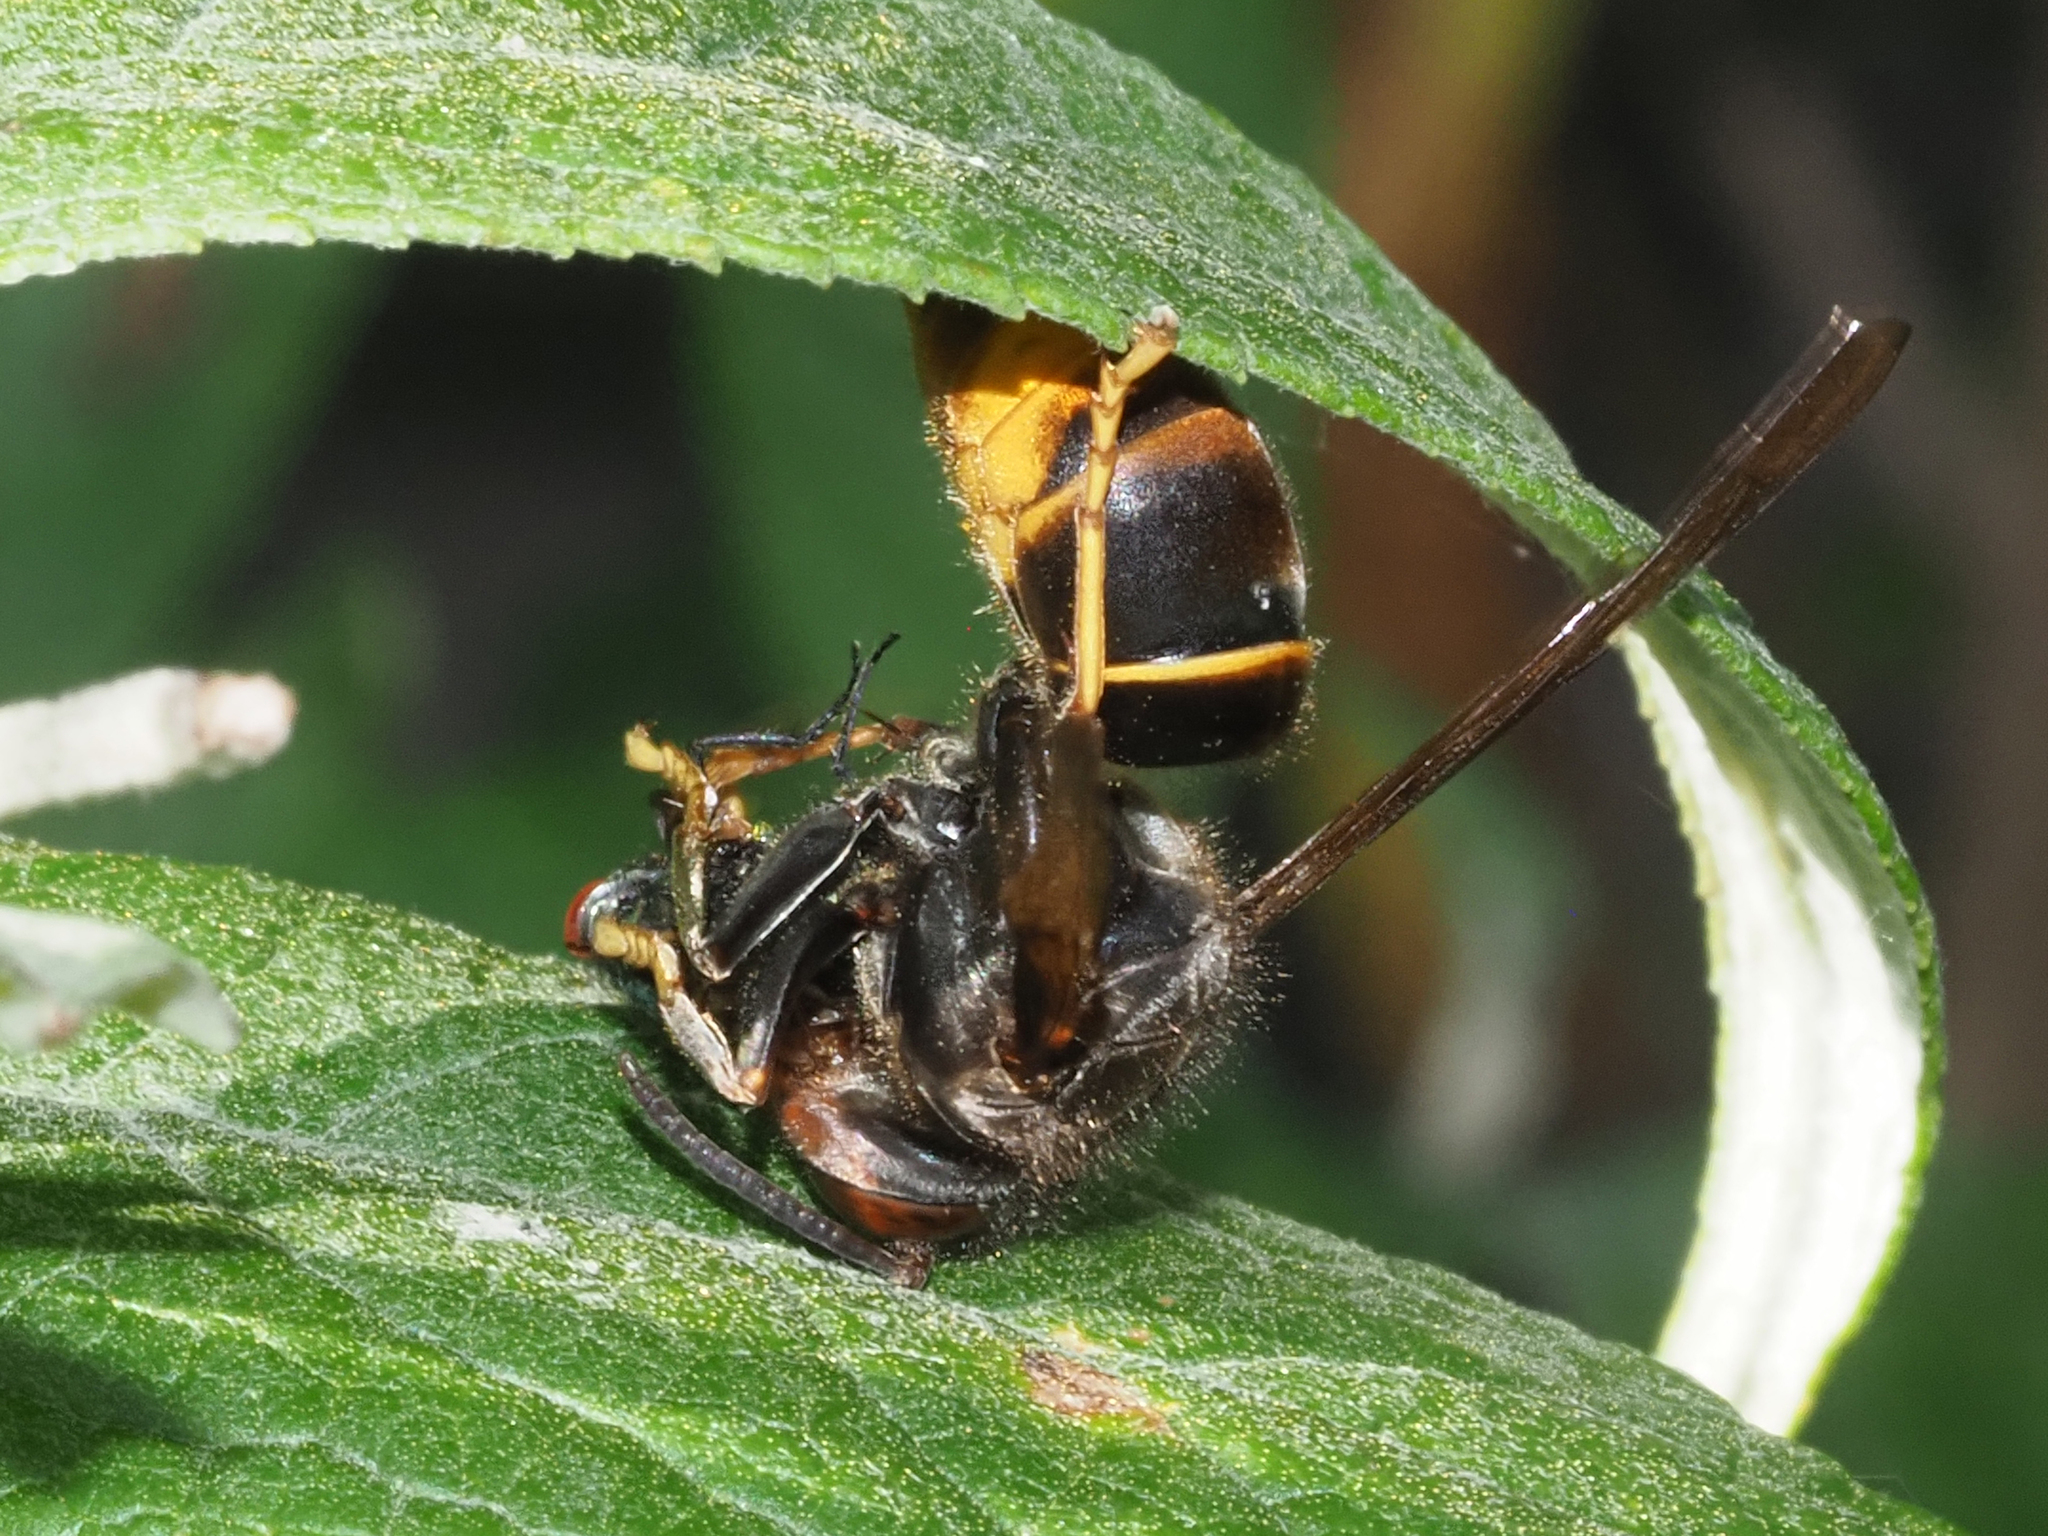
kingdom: Animalia
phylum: Arthropoda
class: Insecta
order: Hymenoptera
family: Vespidae
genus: Vespa
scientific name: Vespa velutina
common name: Asian hornet
